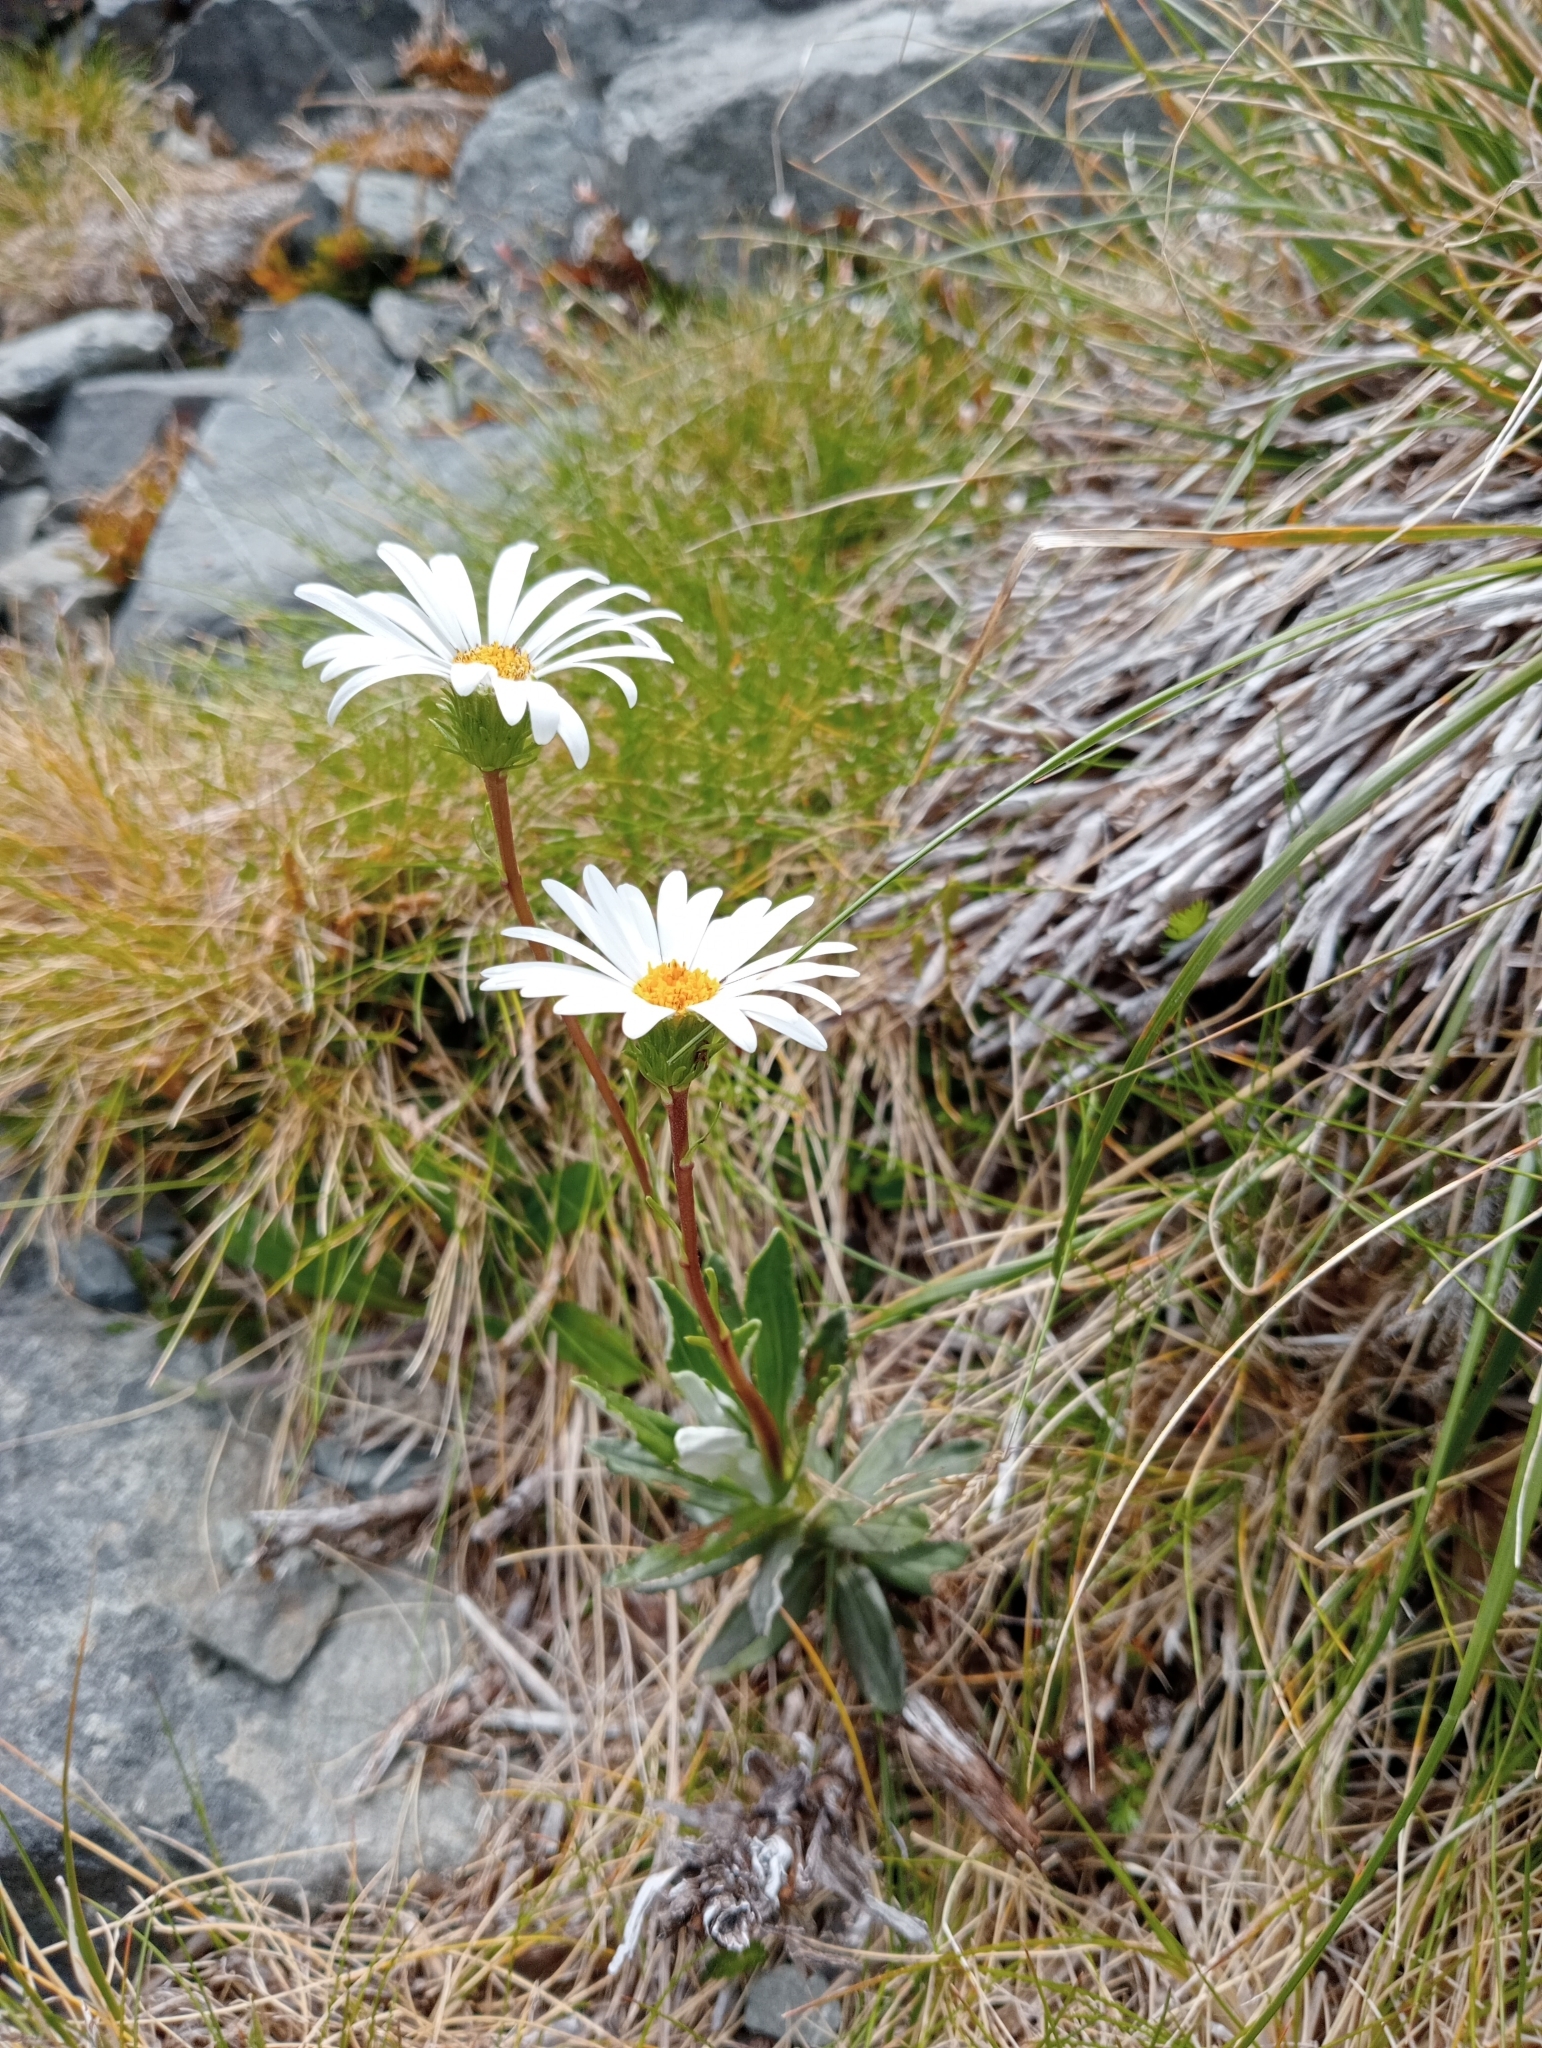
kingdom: Plantae
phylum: Tracheophyta
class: Magnoliopsida
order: Asterales
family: Asteraceae
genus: Celmisia
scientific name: Celmisia angustifolia
